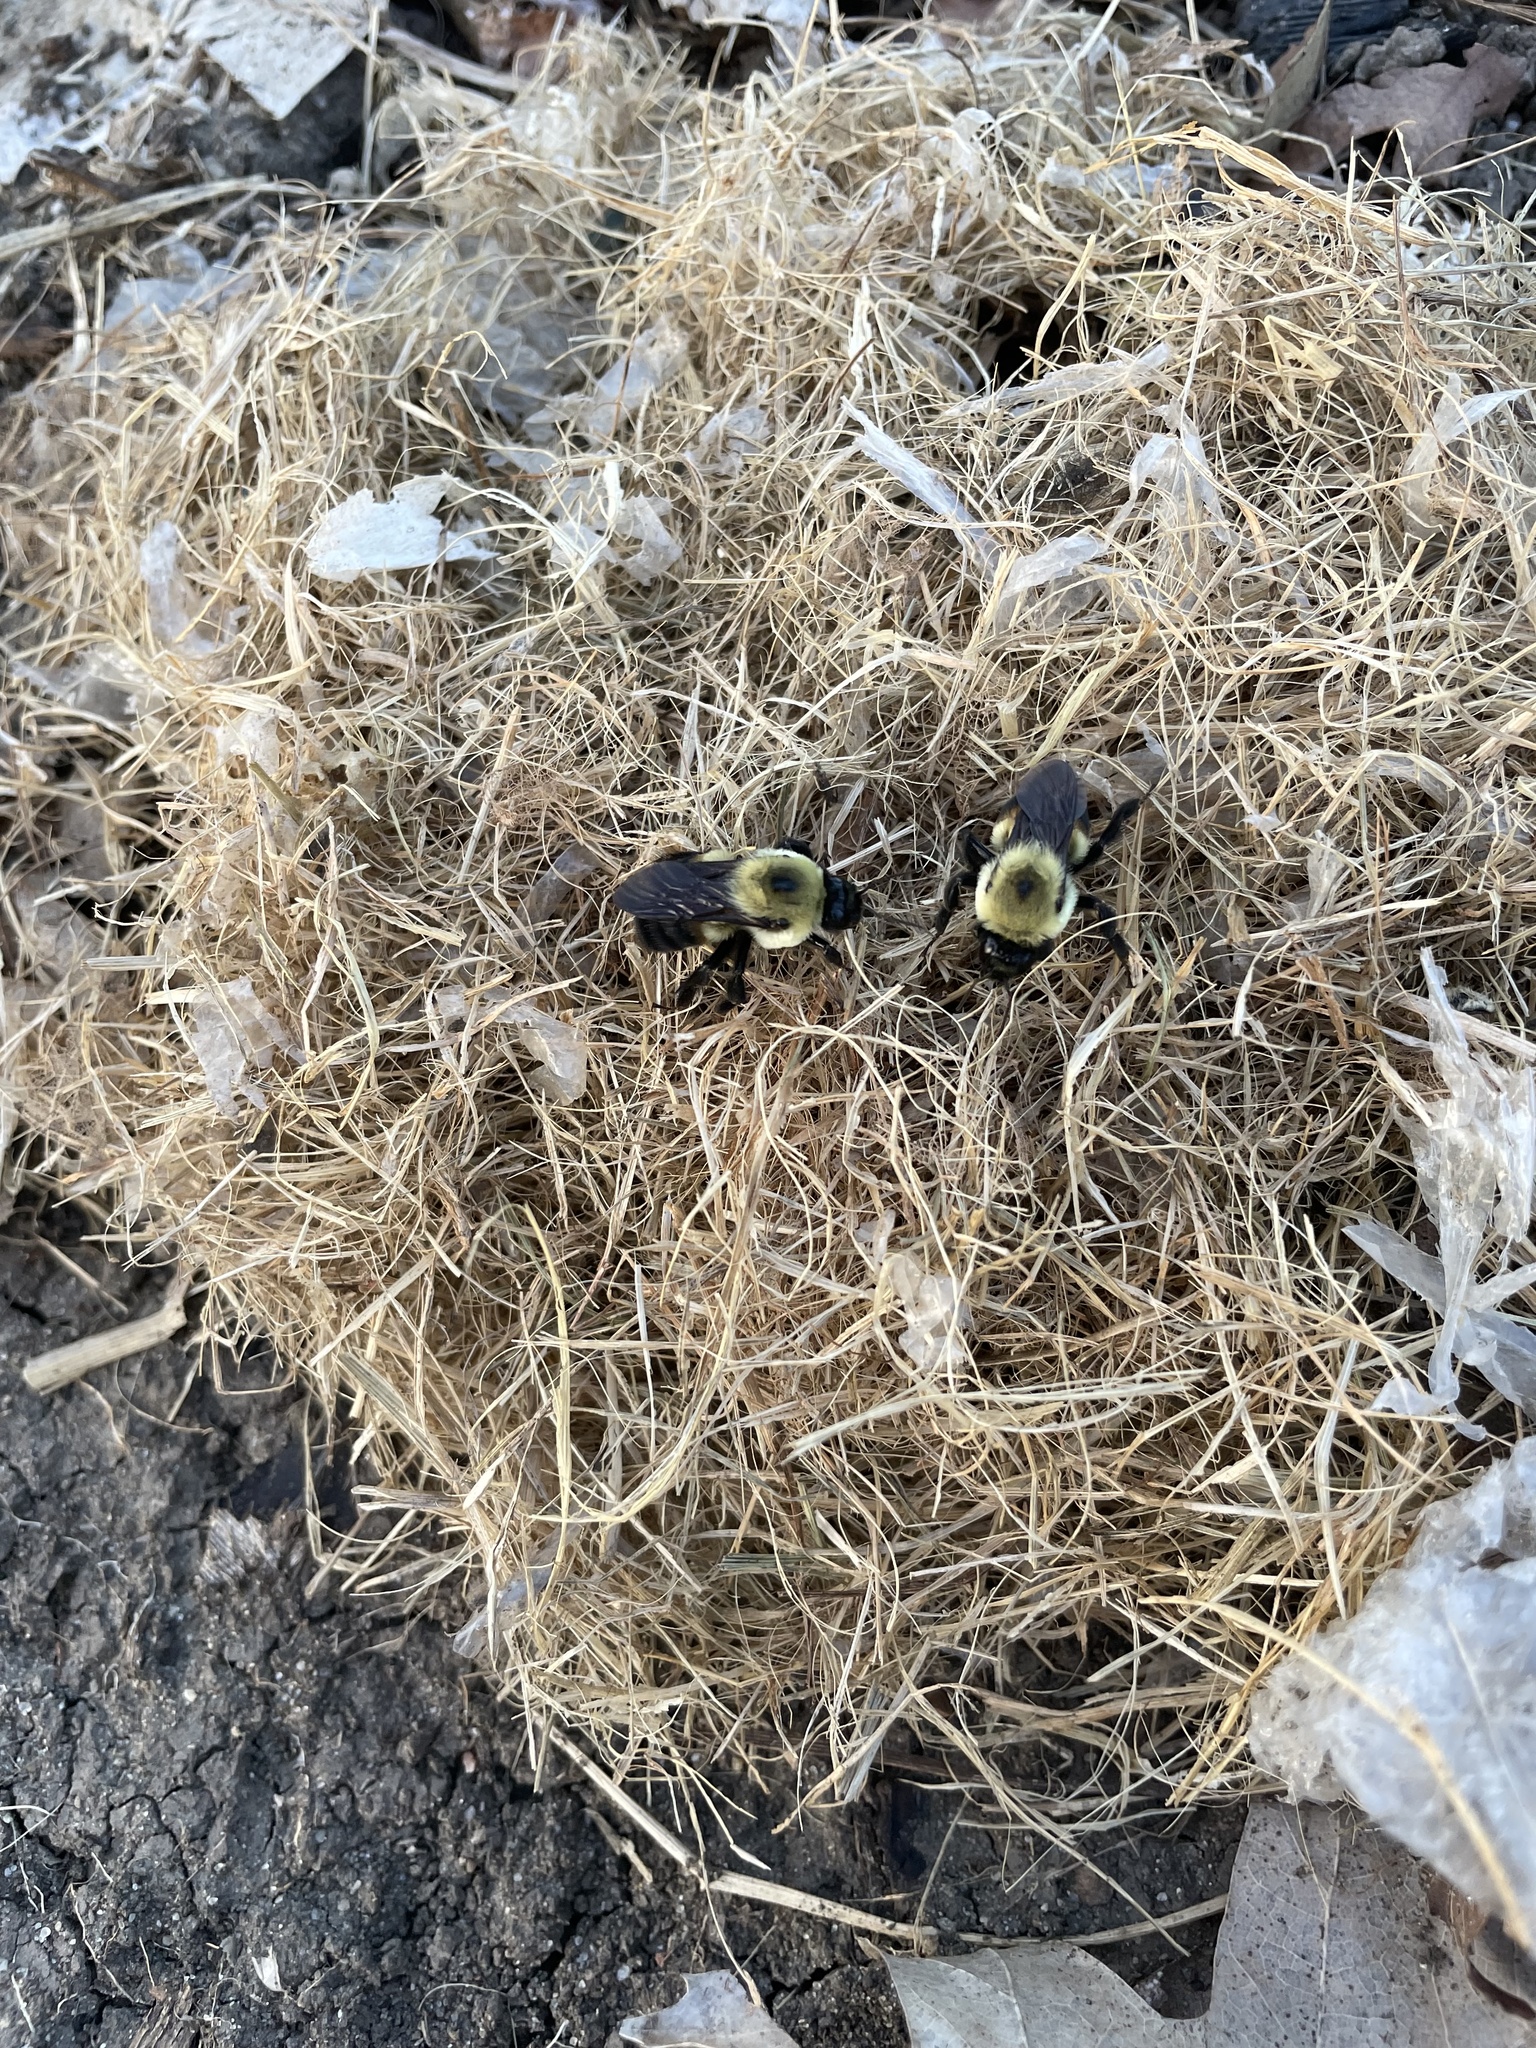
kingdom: Animalia
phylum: Arthropoda
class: Insecta
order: Hymenoptera
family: Apidae
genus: Bombus
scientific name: Bombus griseocollis
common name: Brown-belted bumble bee
